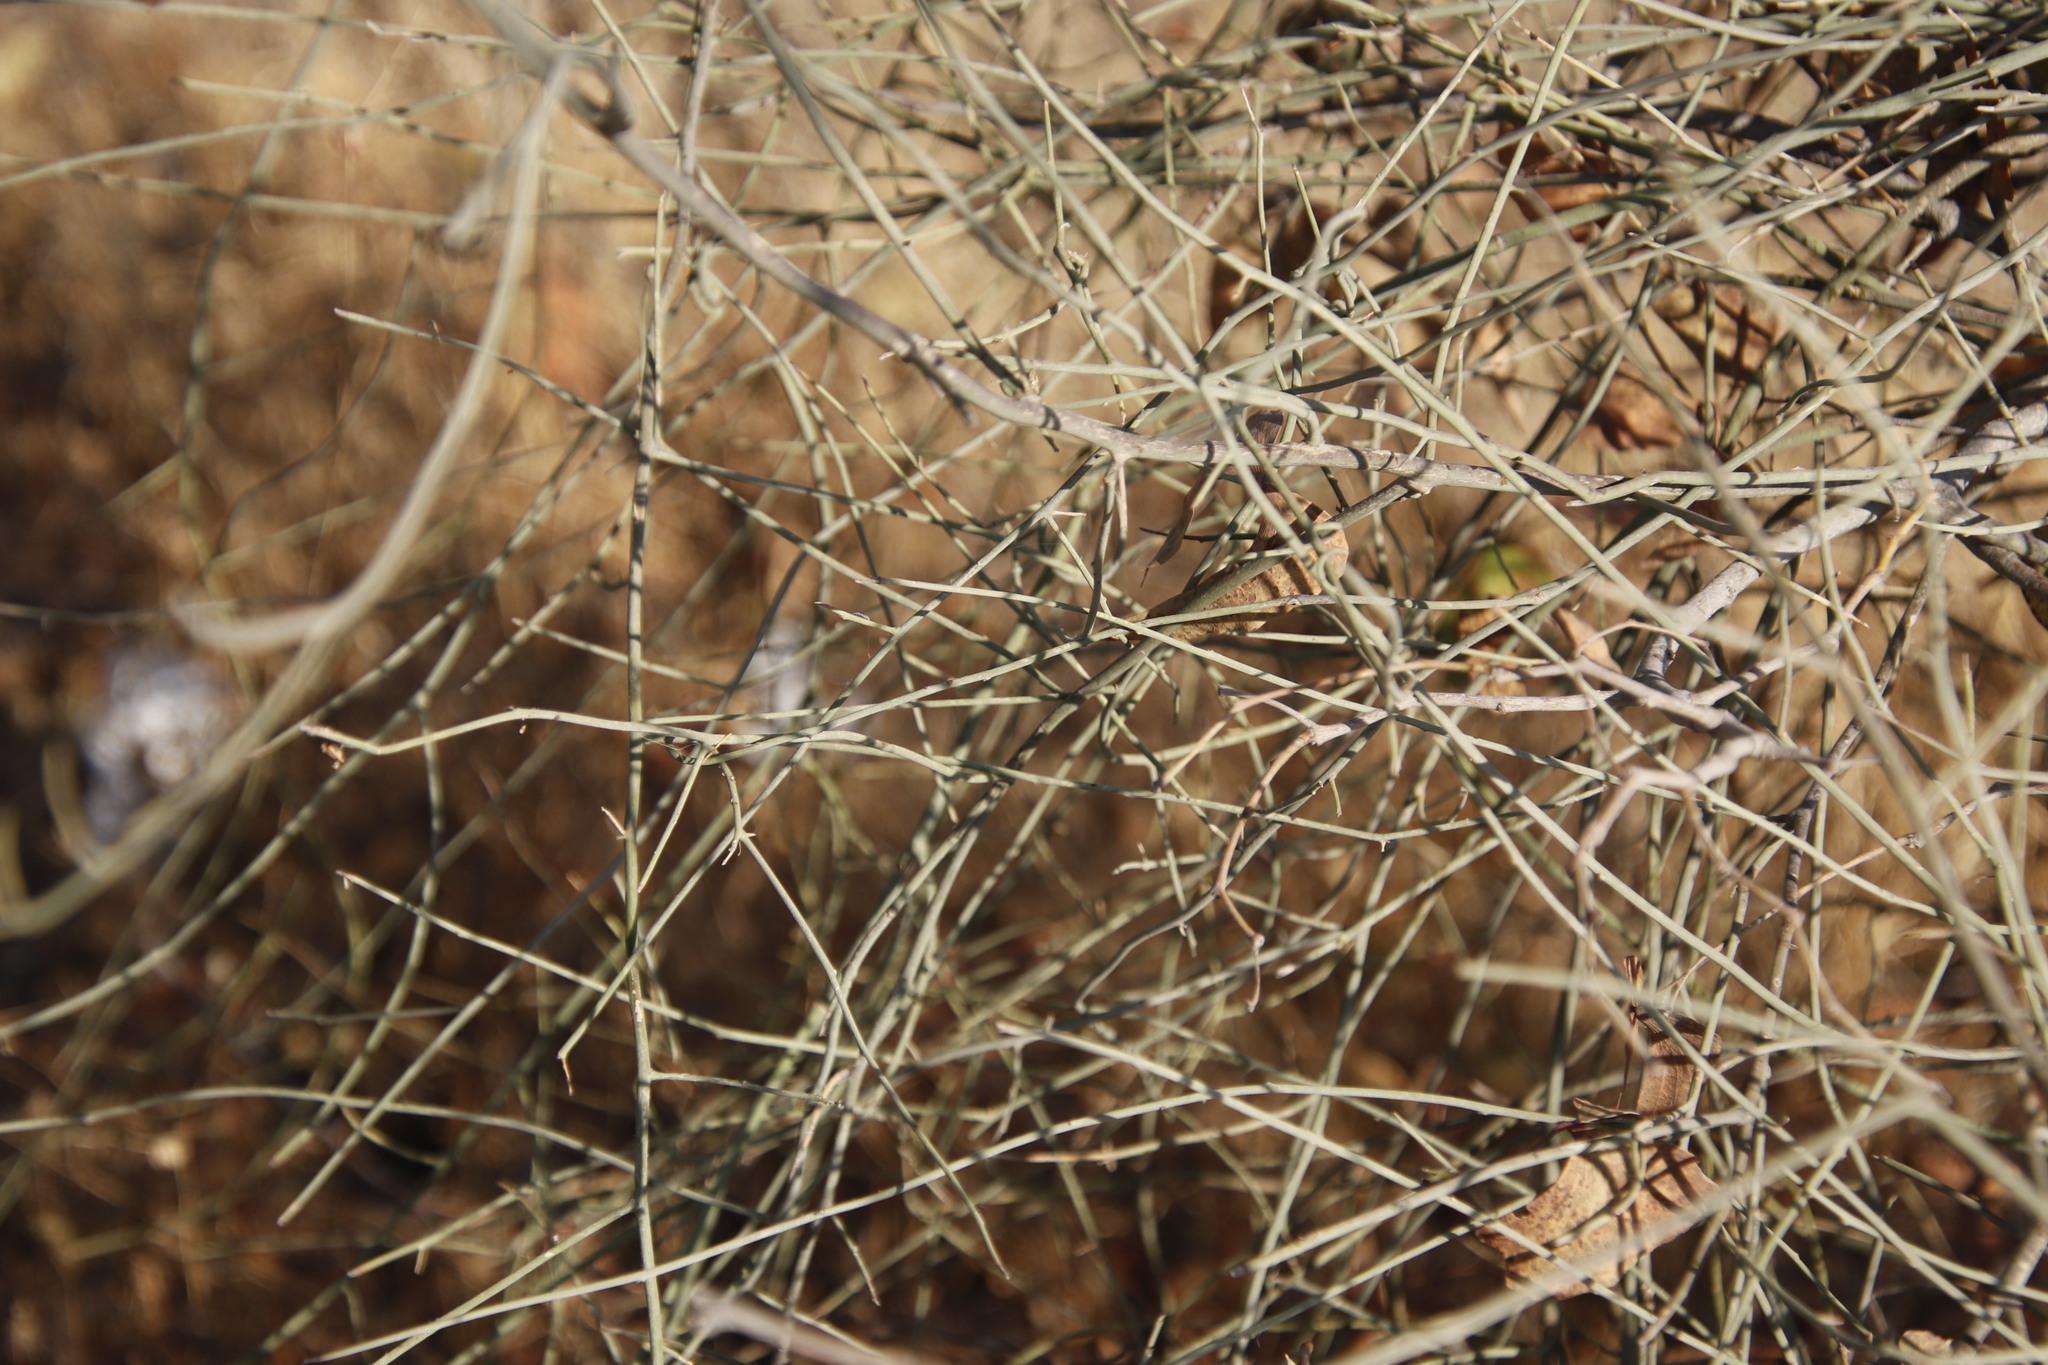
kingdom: Plantae
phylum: Tracheophyta
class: Magnoliopsida
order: Brassicales
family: Capparaceae
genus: Cadaba
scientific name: Cadaba aphylla
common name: Black storm
